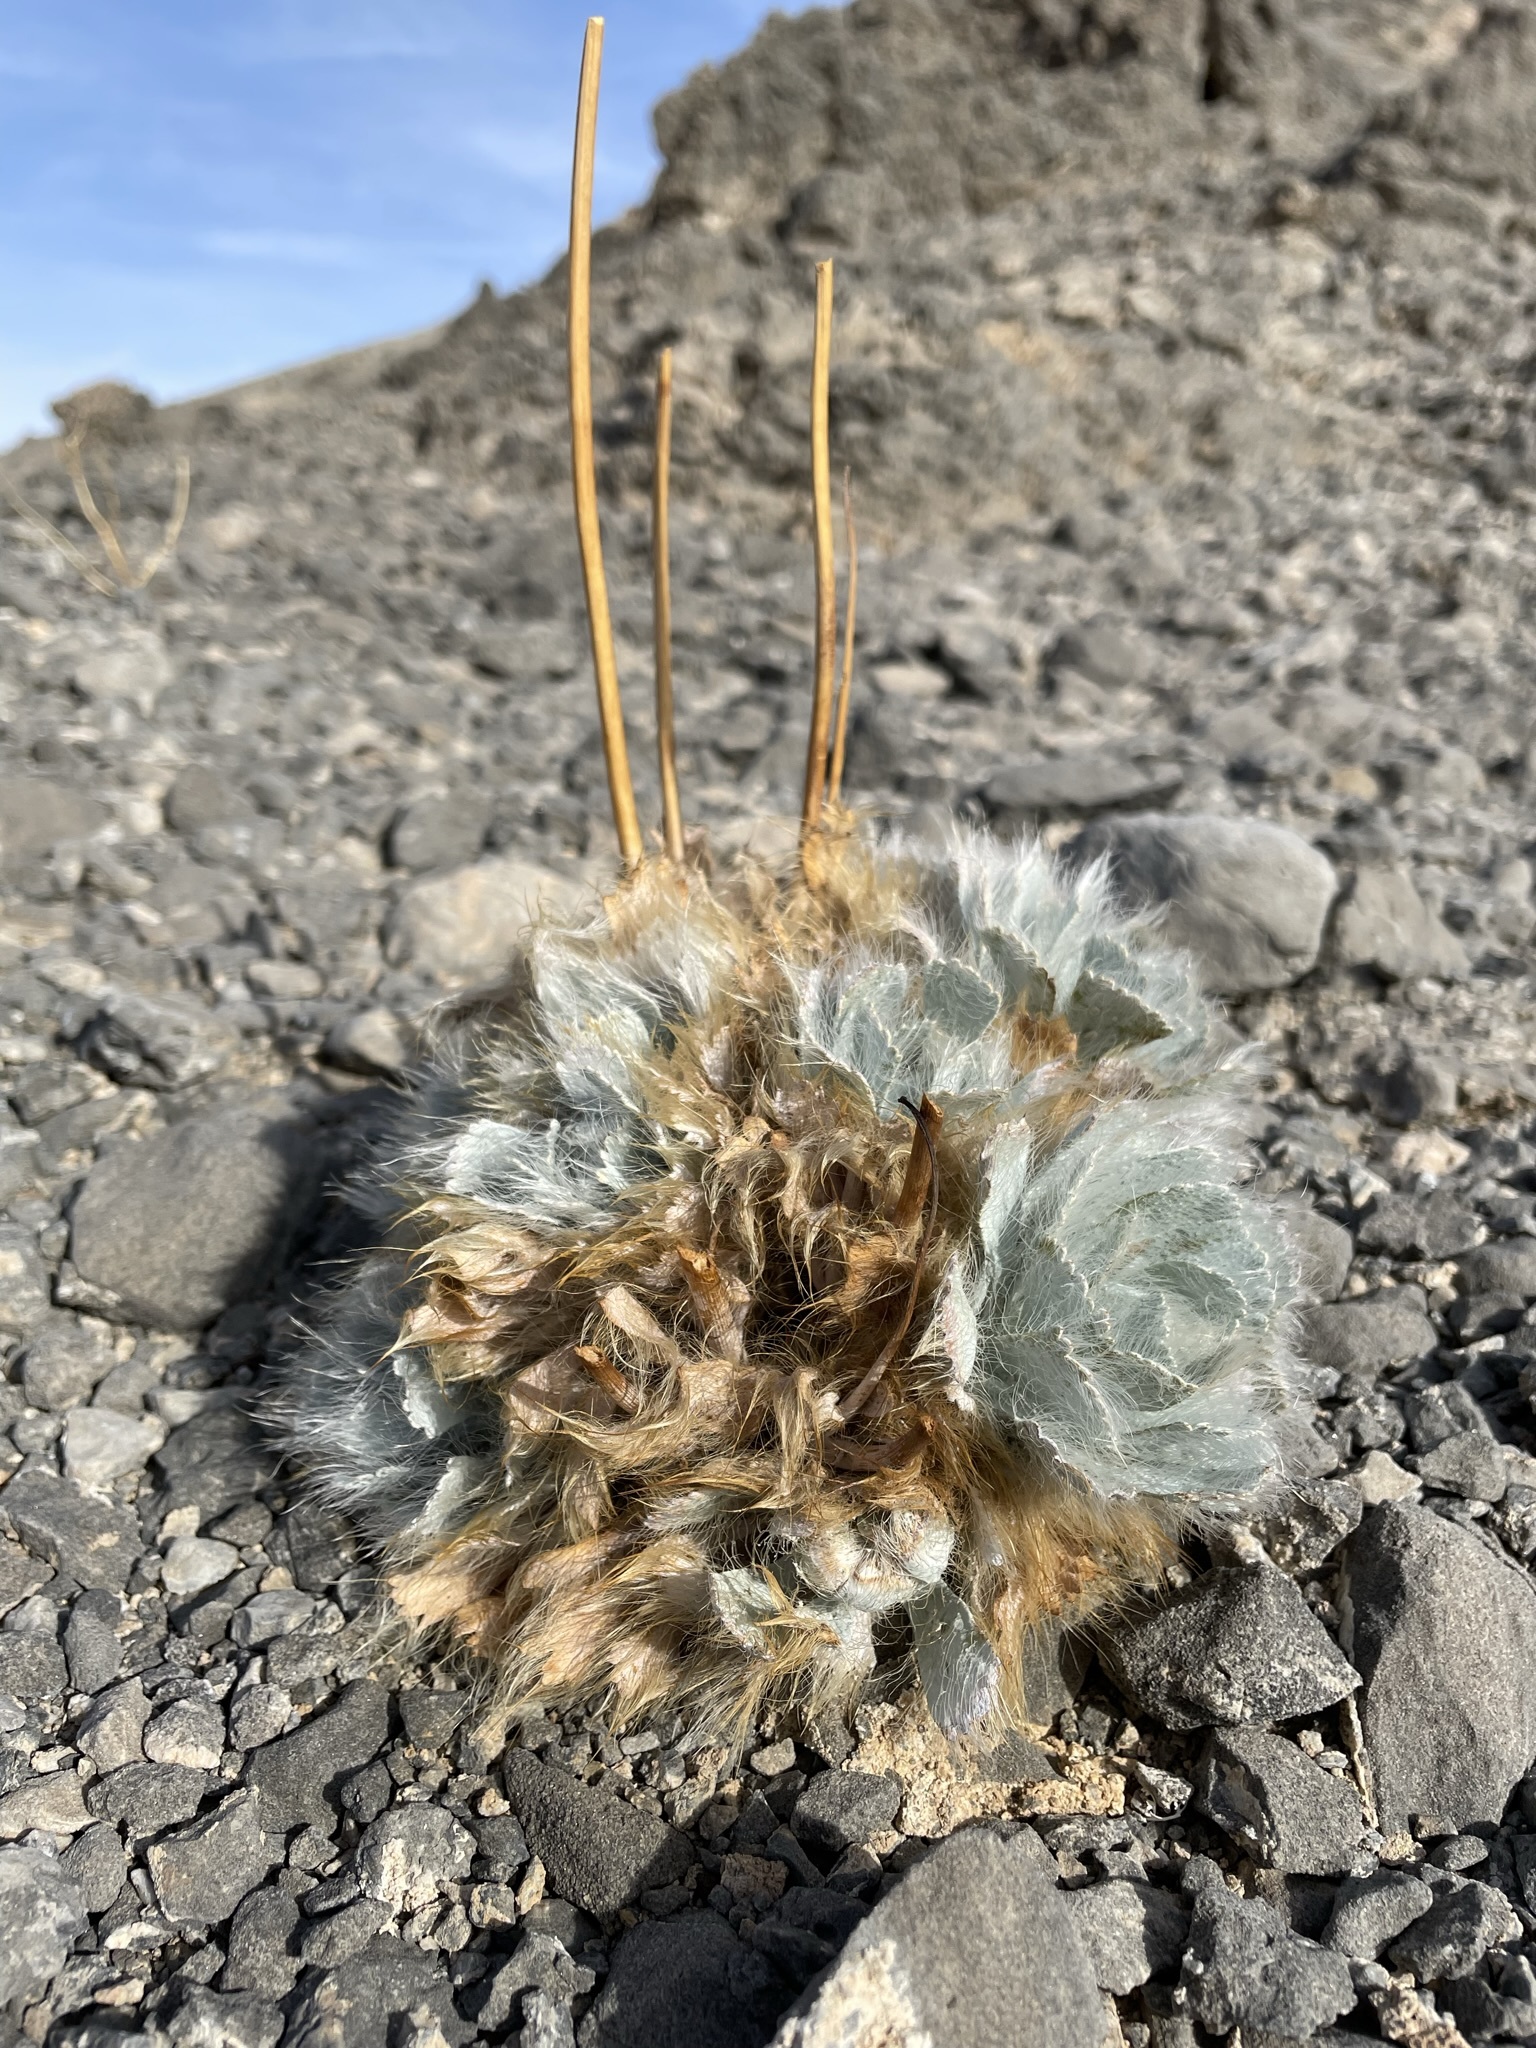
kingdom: Plantae
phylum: Tracheophyta
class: Magnoliopsida
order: Ranunculales
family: Papaveraceae
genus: Arctomecon
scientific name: Arctomecon merriamii
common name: White bear-poppy
